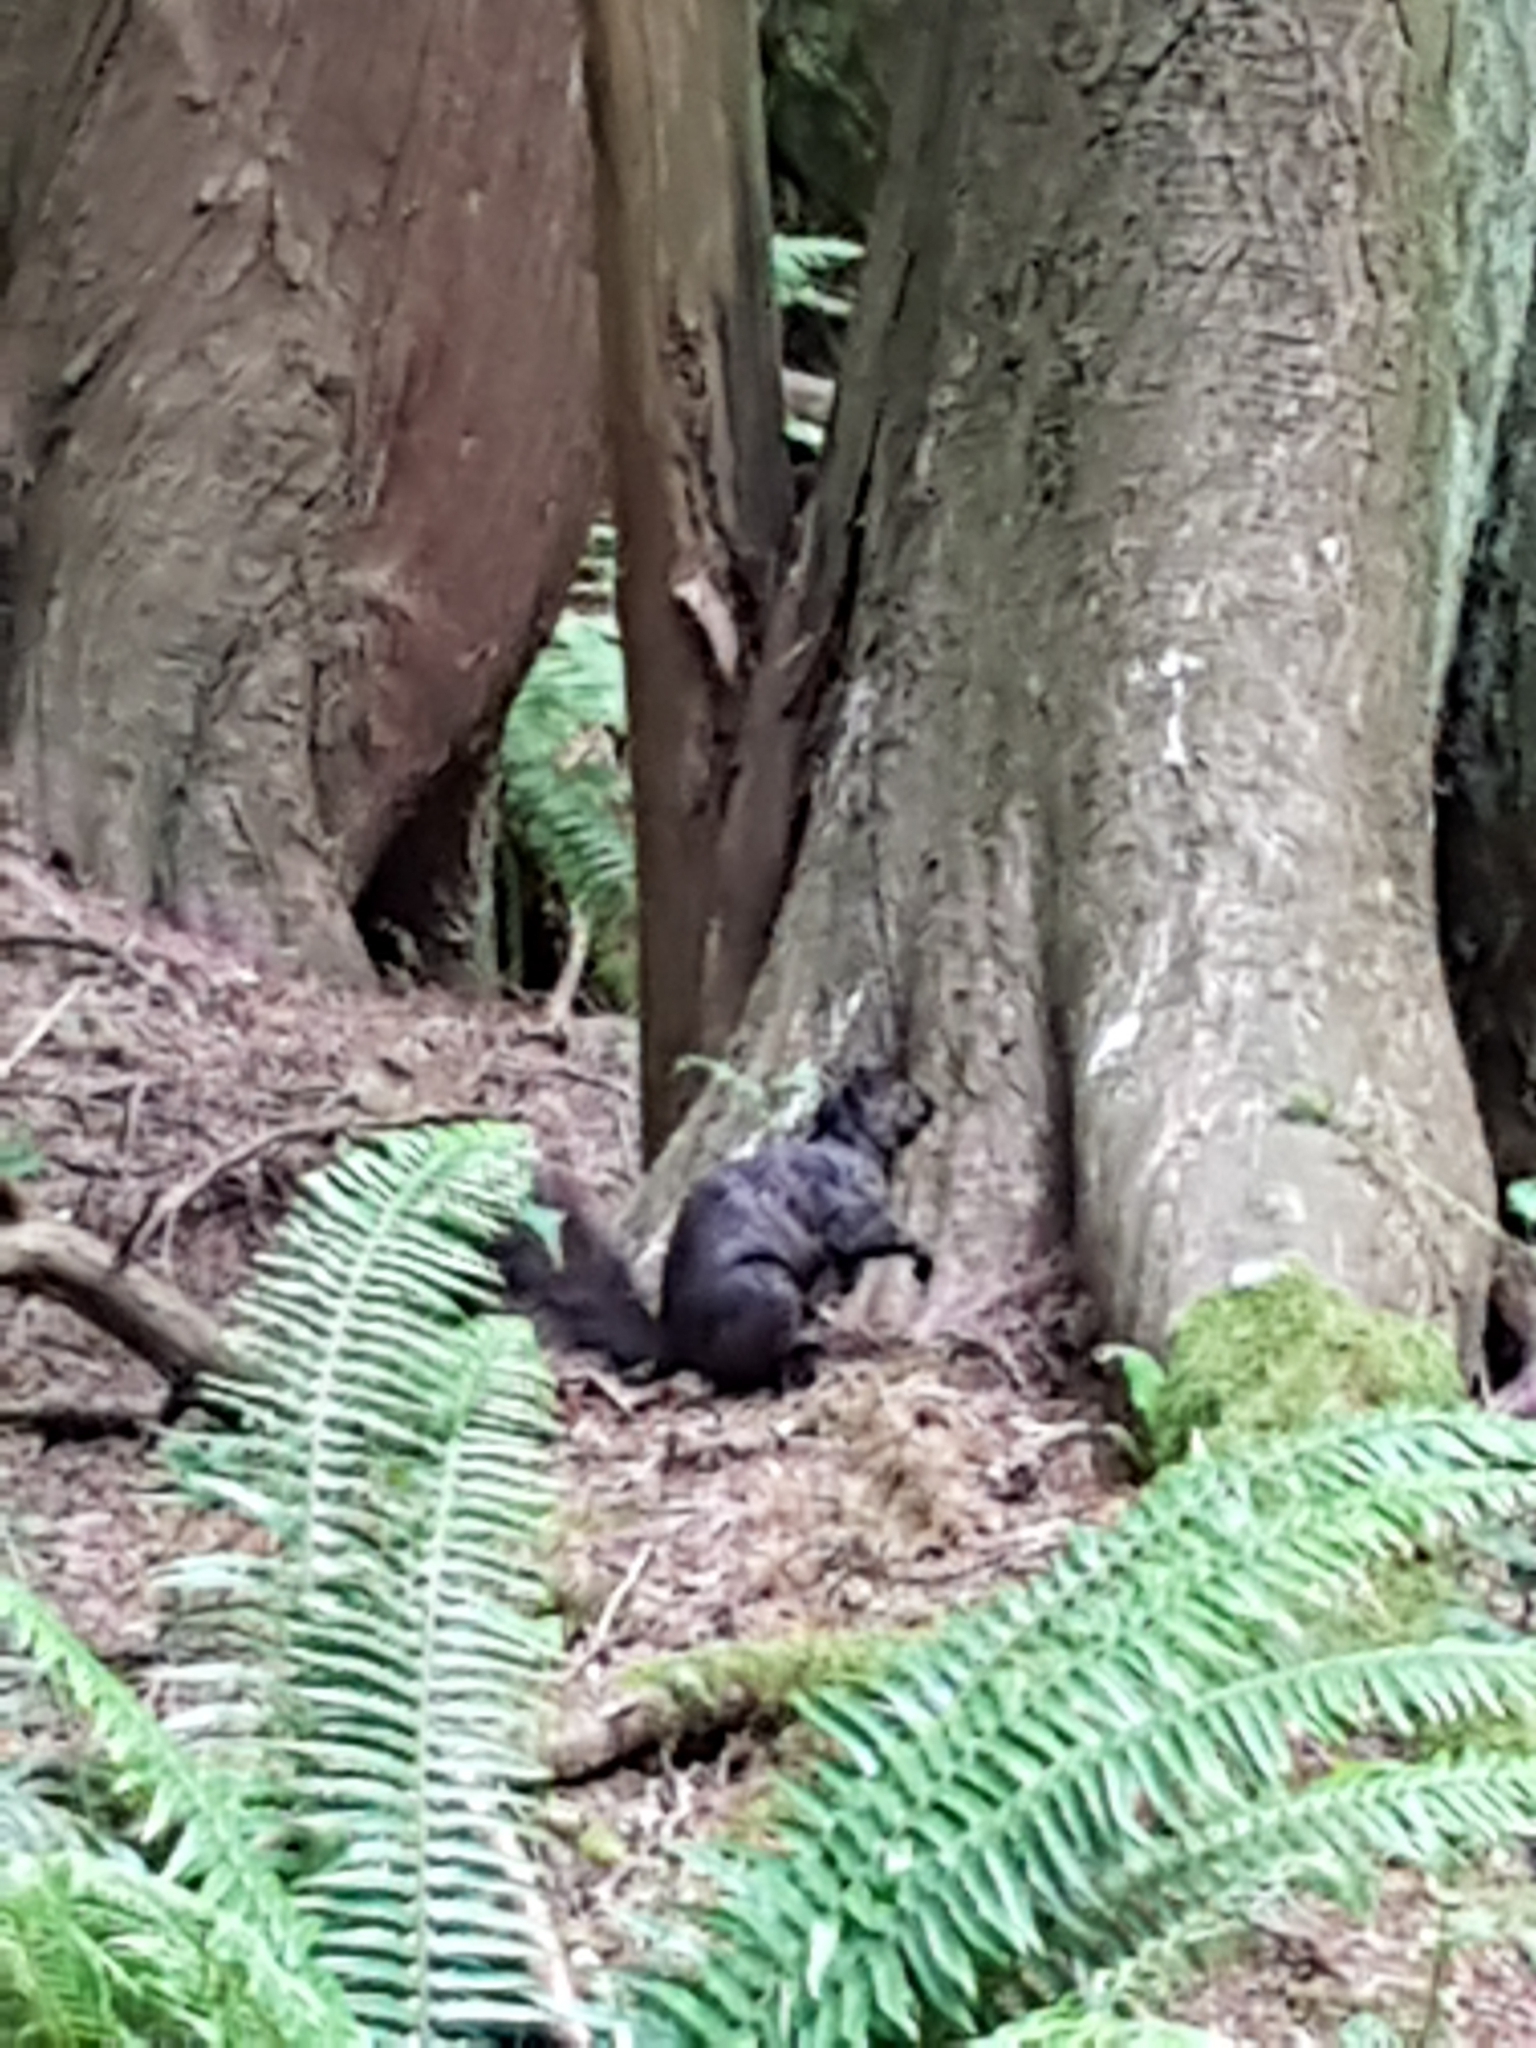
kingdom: Animalia
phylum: Chordata
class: Mammalia
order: Rodentia
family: Sciuridae
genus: Sciurus
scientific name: Sciurus carolinensis
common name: Eastern gray squirrel
